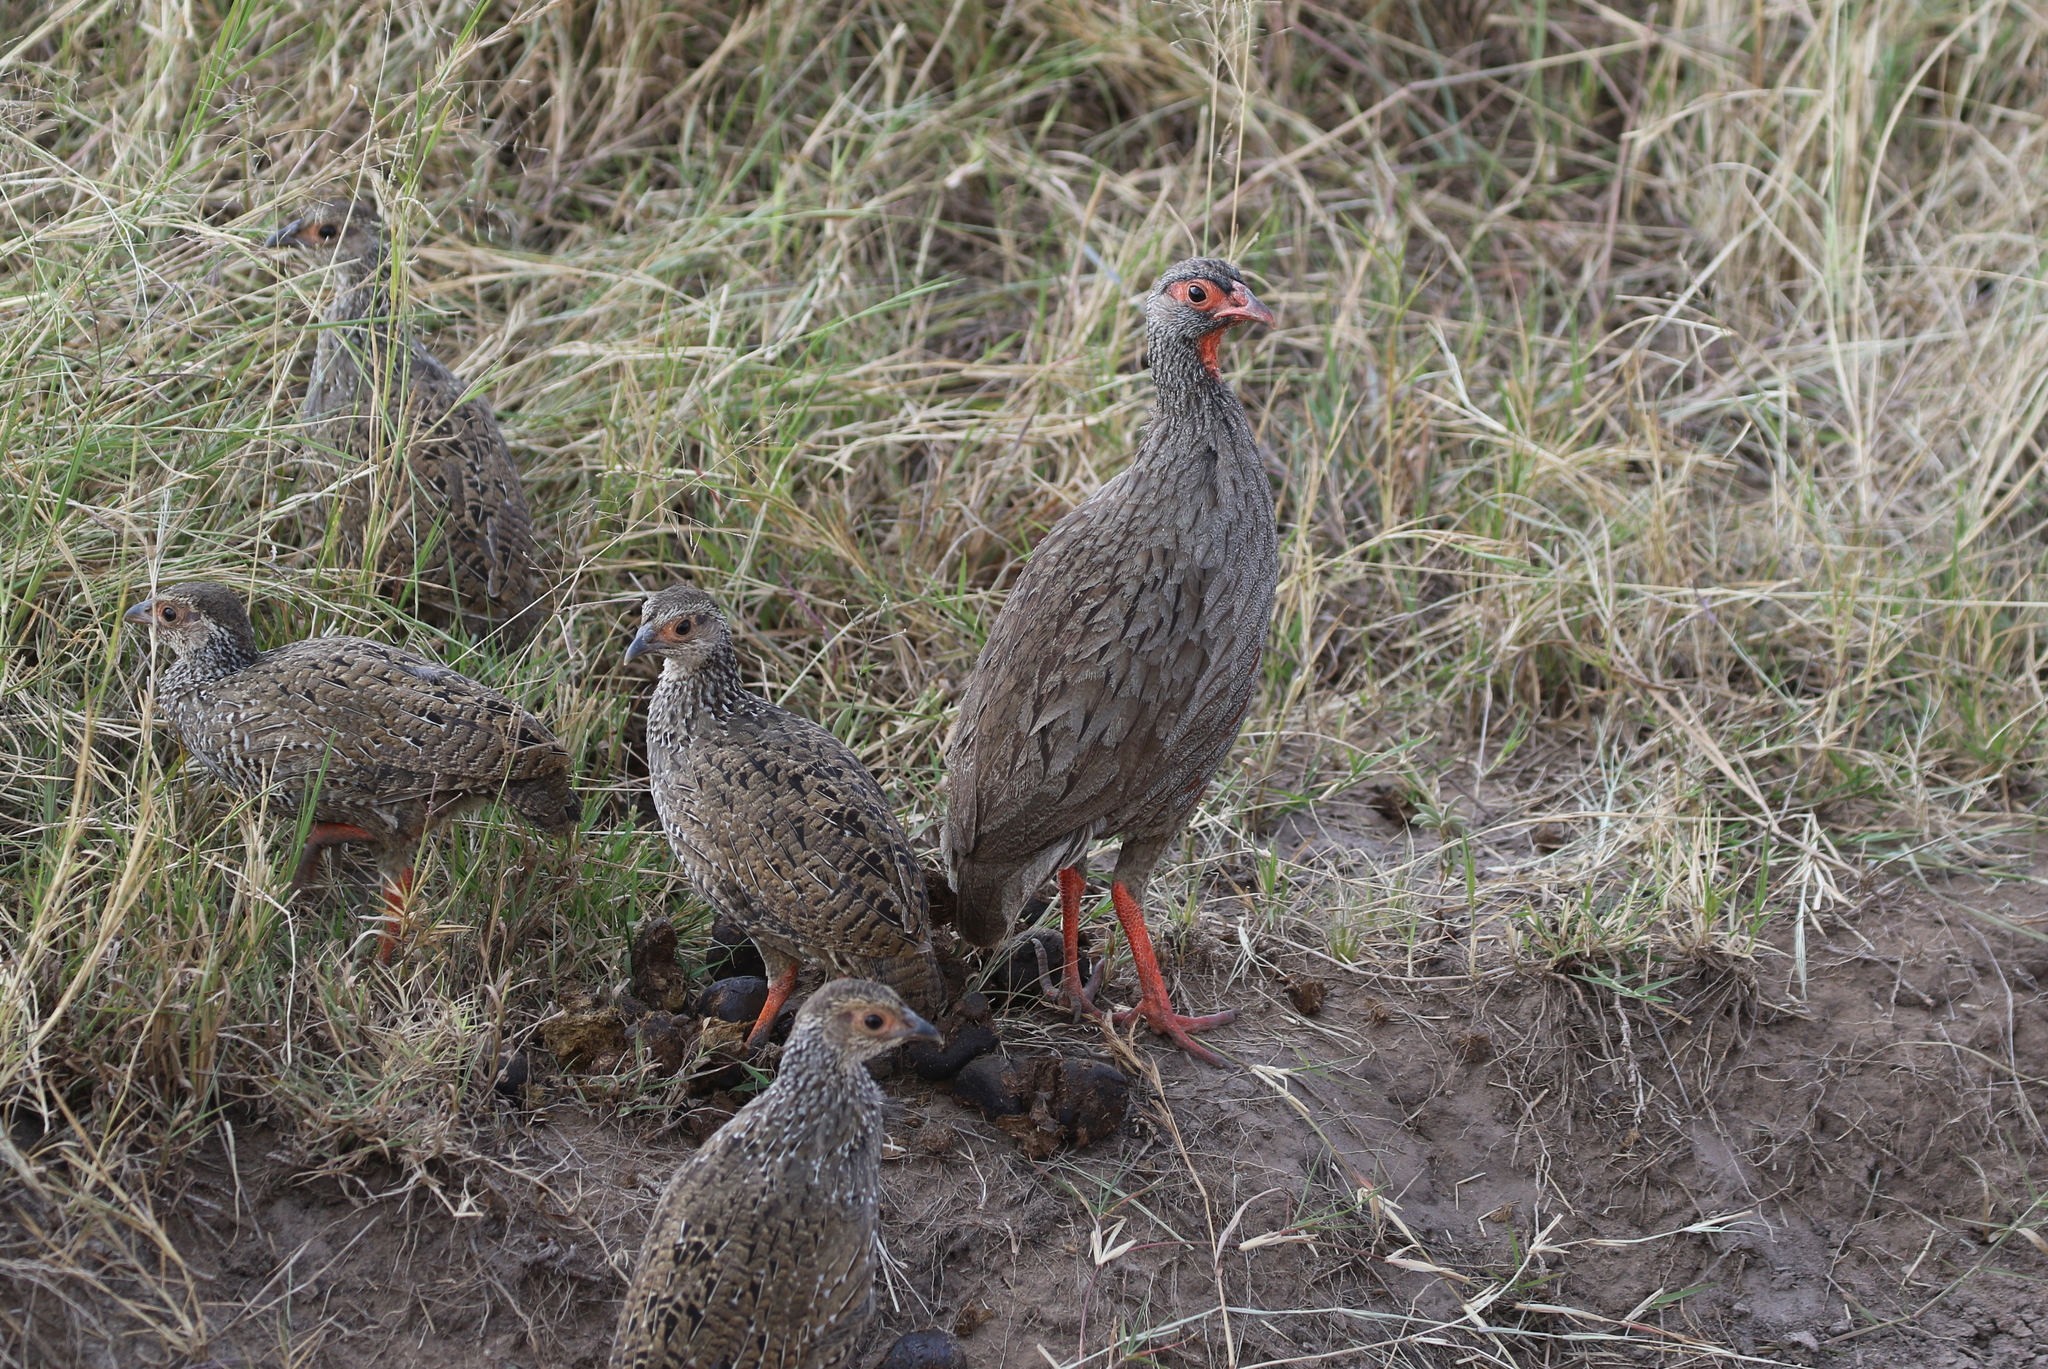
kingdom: Animalia
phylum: Chordata
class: Aves
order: Galliformes
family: Phasianidae
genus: Pternistis
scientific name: Pternistis afer
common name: Red-necked spurfowl
